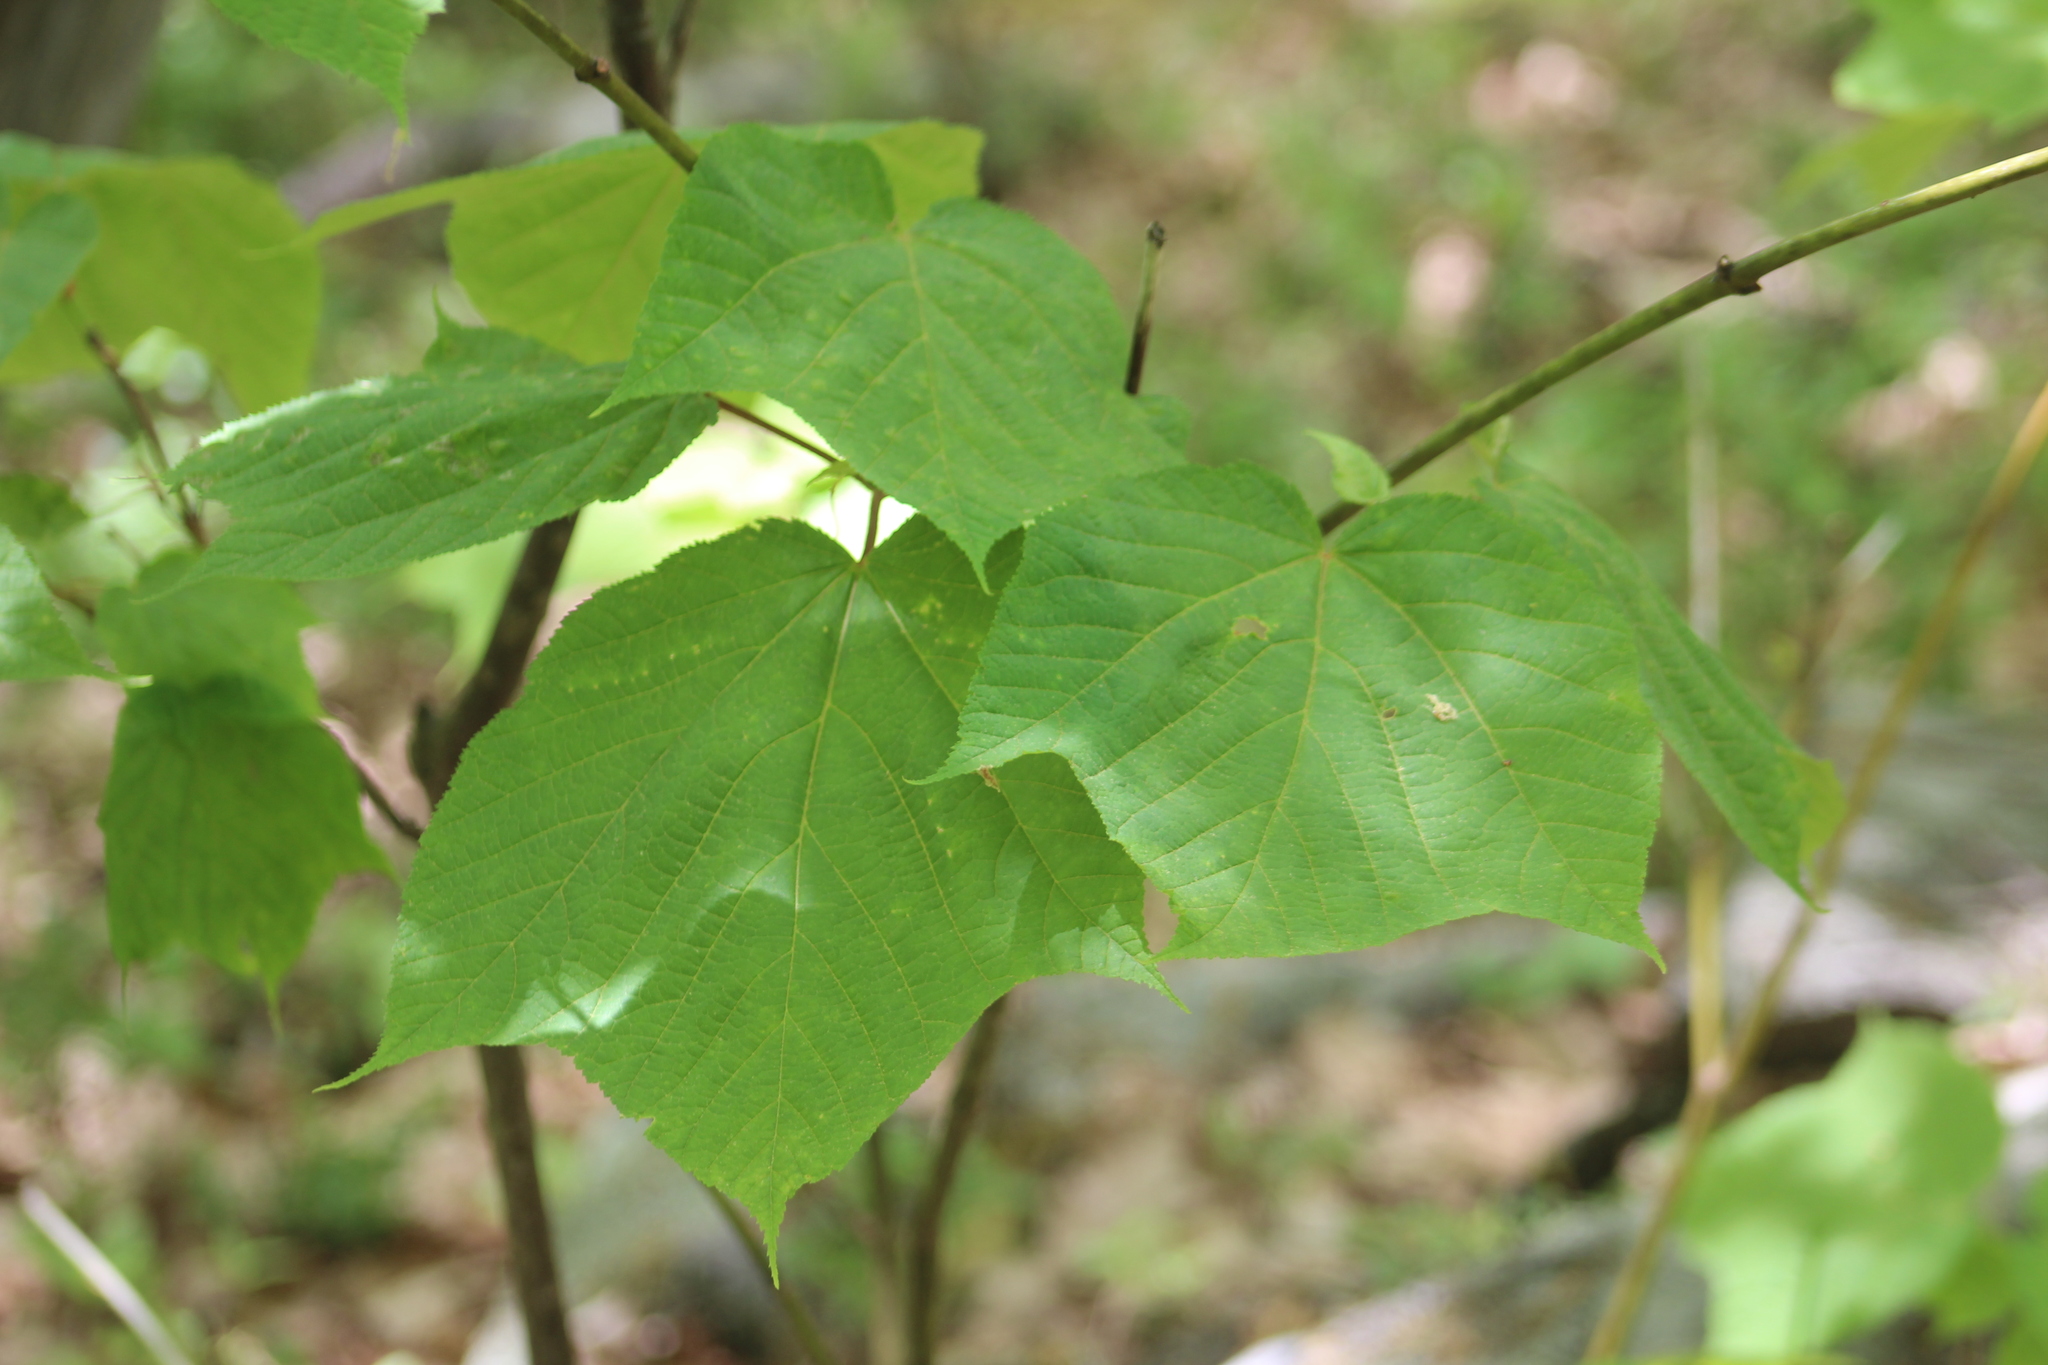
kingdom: Plantae
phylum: Tracheophyta
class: Magnoliopsida
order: Sapindales
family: Sapindaceae
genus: Acer
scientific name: Acer pensylvanicum
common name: Moosewood
